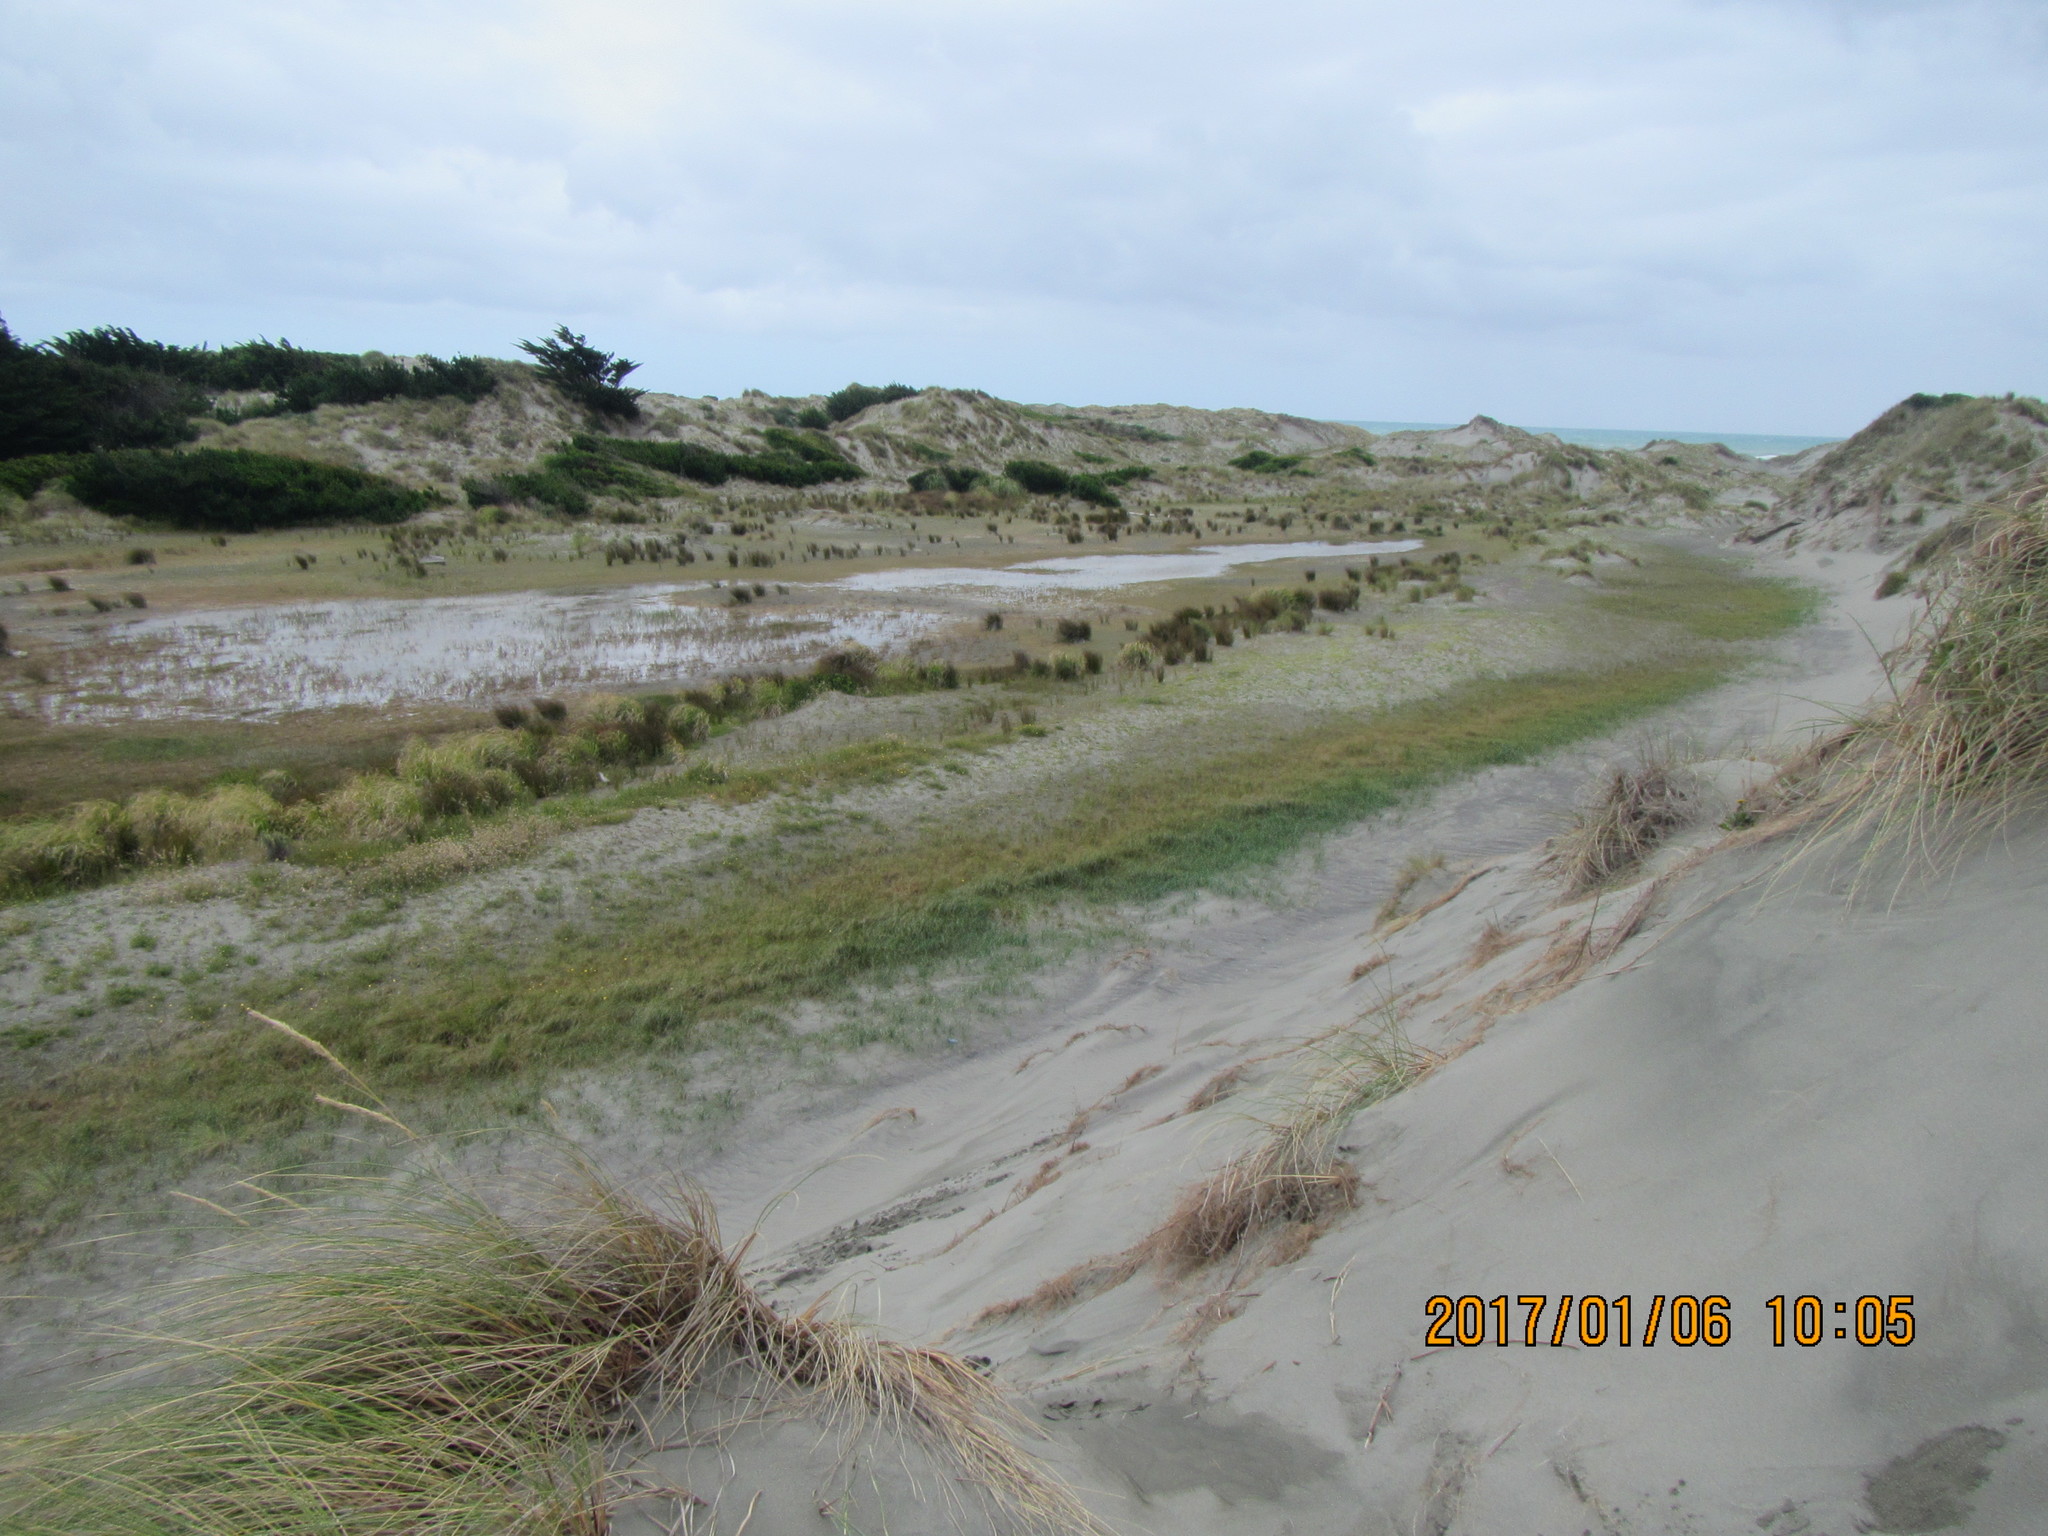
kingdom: Plantae
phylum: Tracheophyta
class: Liliopsida
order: Poales
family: Cyperaceae
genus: Carex
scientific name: Carex pumila
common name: Dwarf sedge
